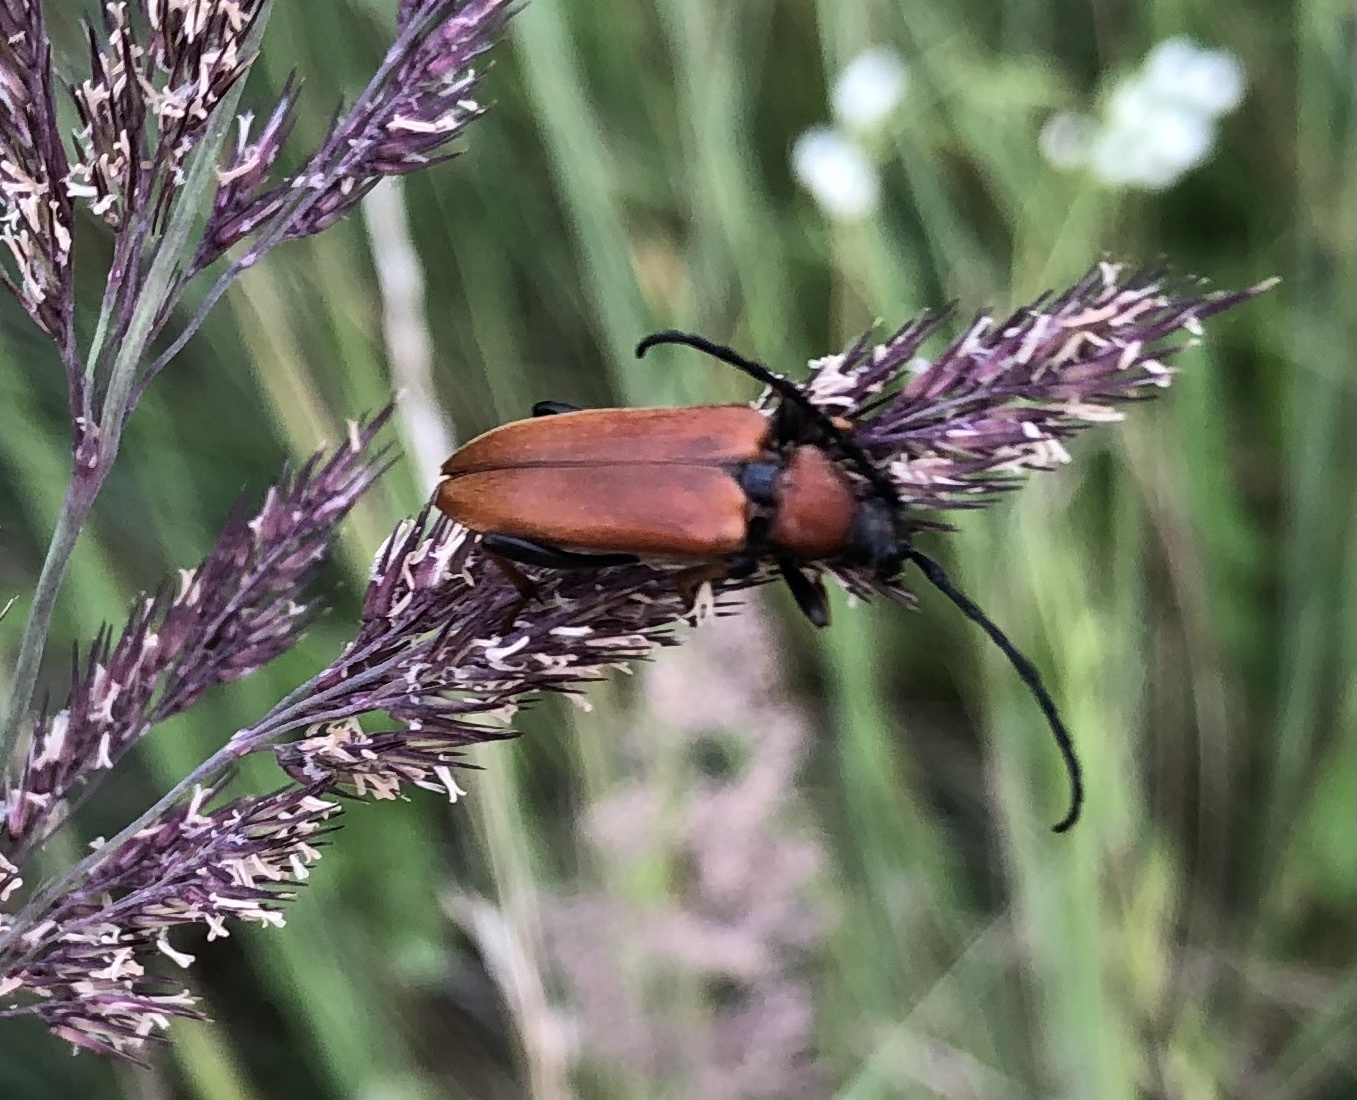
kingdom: Animalia
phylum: Arthropoda
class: Insecta
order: Coleoptera
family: Cerambycidae
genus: Stictoleptura
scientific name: Stictoleptura rubra
